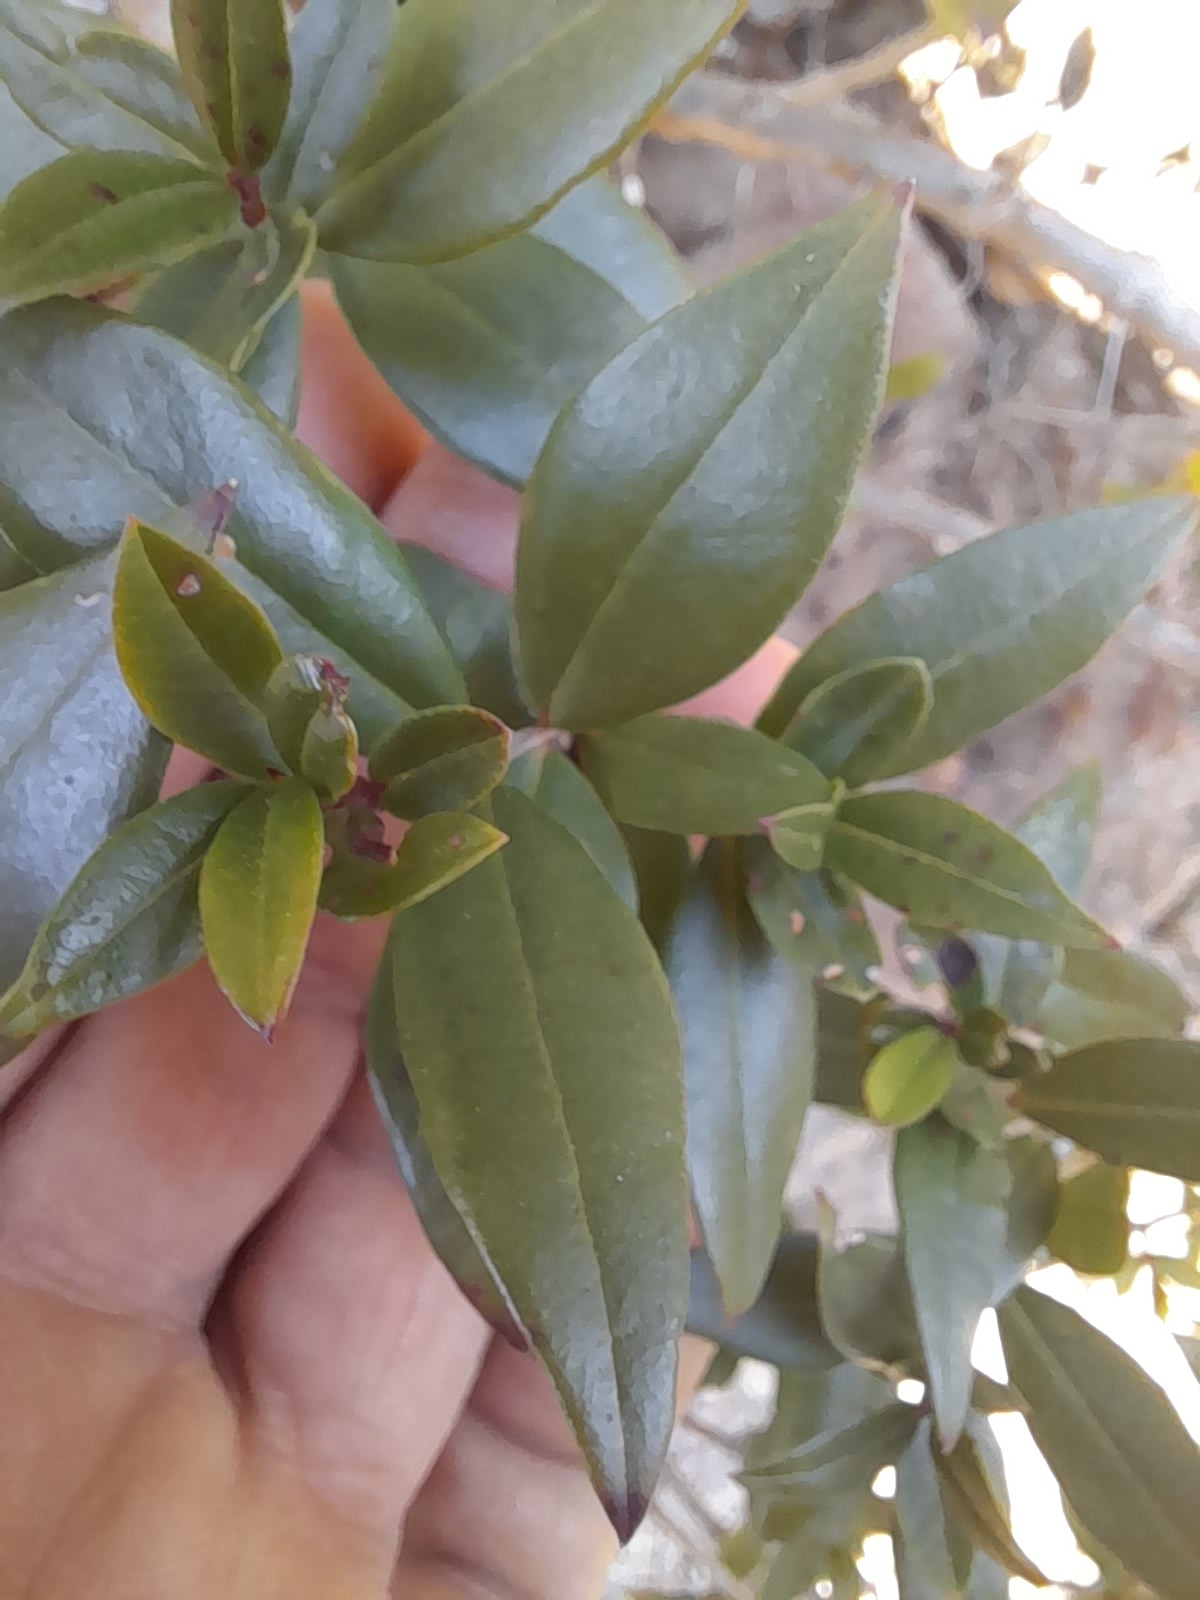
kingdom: Plantae
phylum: Tracheophyta
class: Magnoliopsida
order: Myrtales
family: Myrtaceae
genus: Myrtus
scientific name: Myrtus communis
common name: Myrtle
